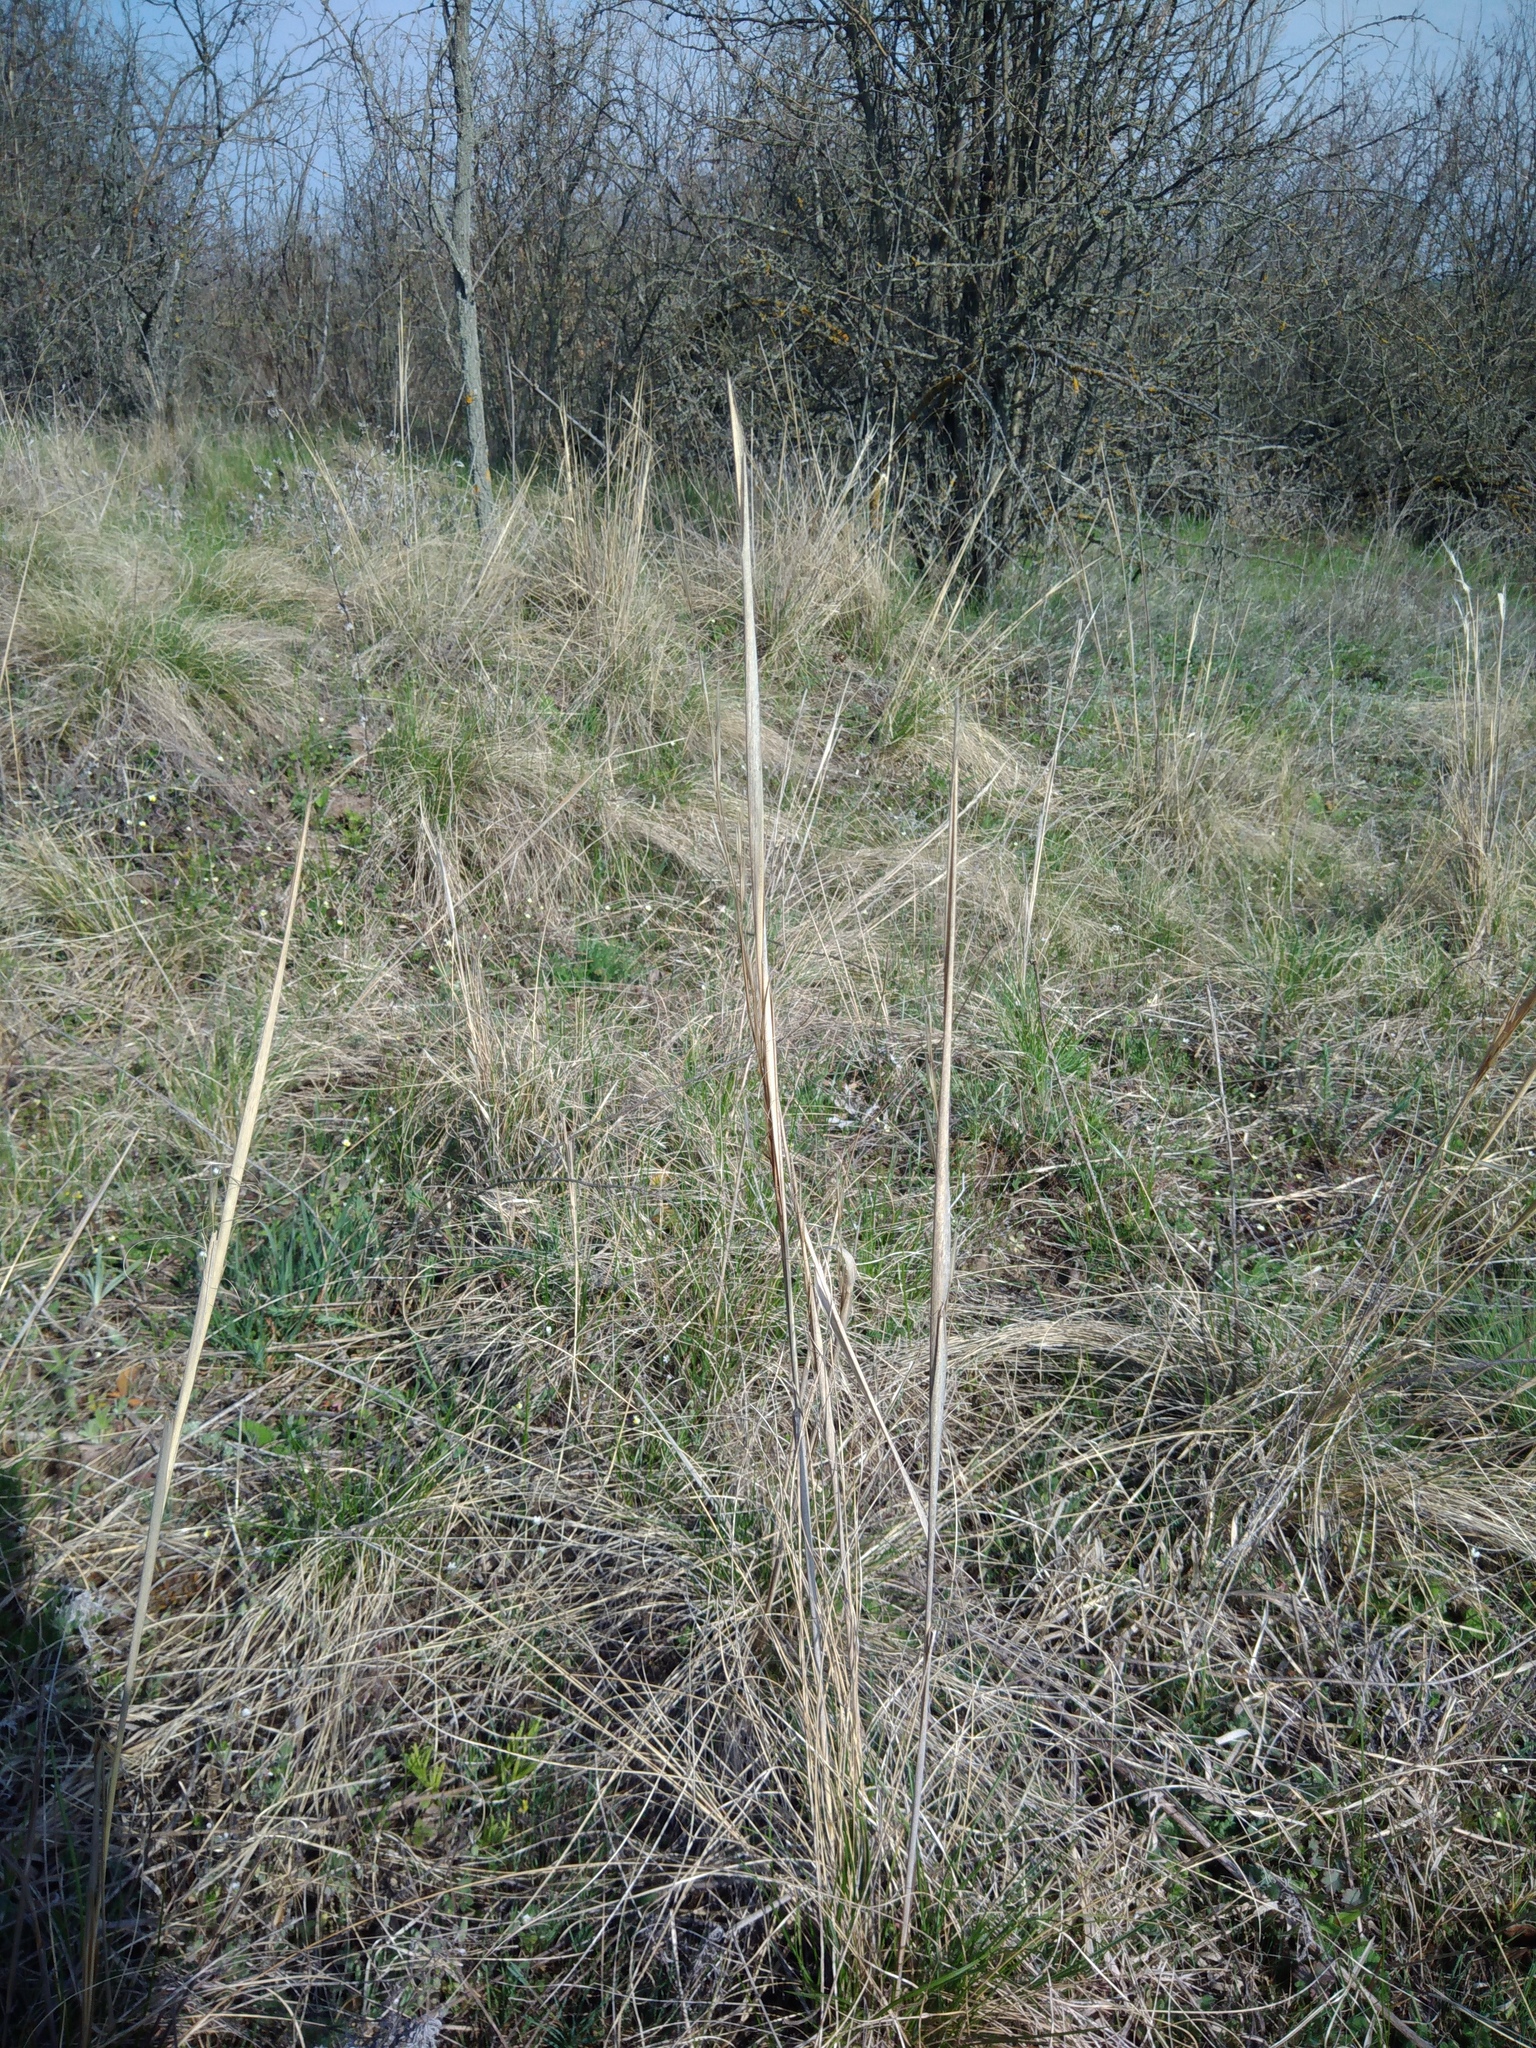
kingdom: Plantae
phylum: Tracheophyta
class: Liliopsida
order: Poales
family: Poaceae
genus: Stipa
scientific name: Stipa capillata
